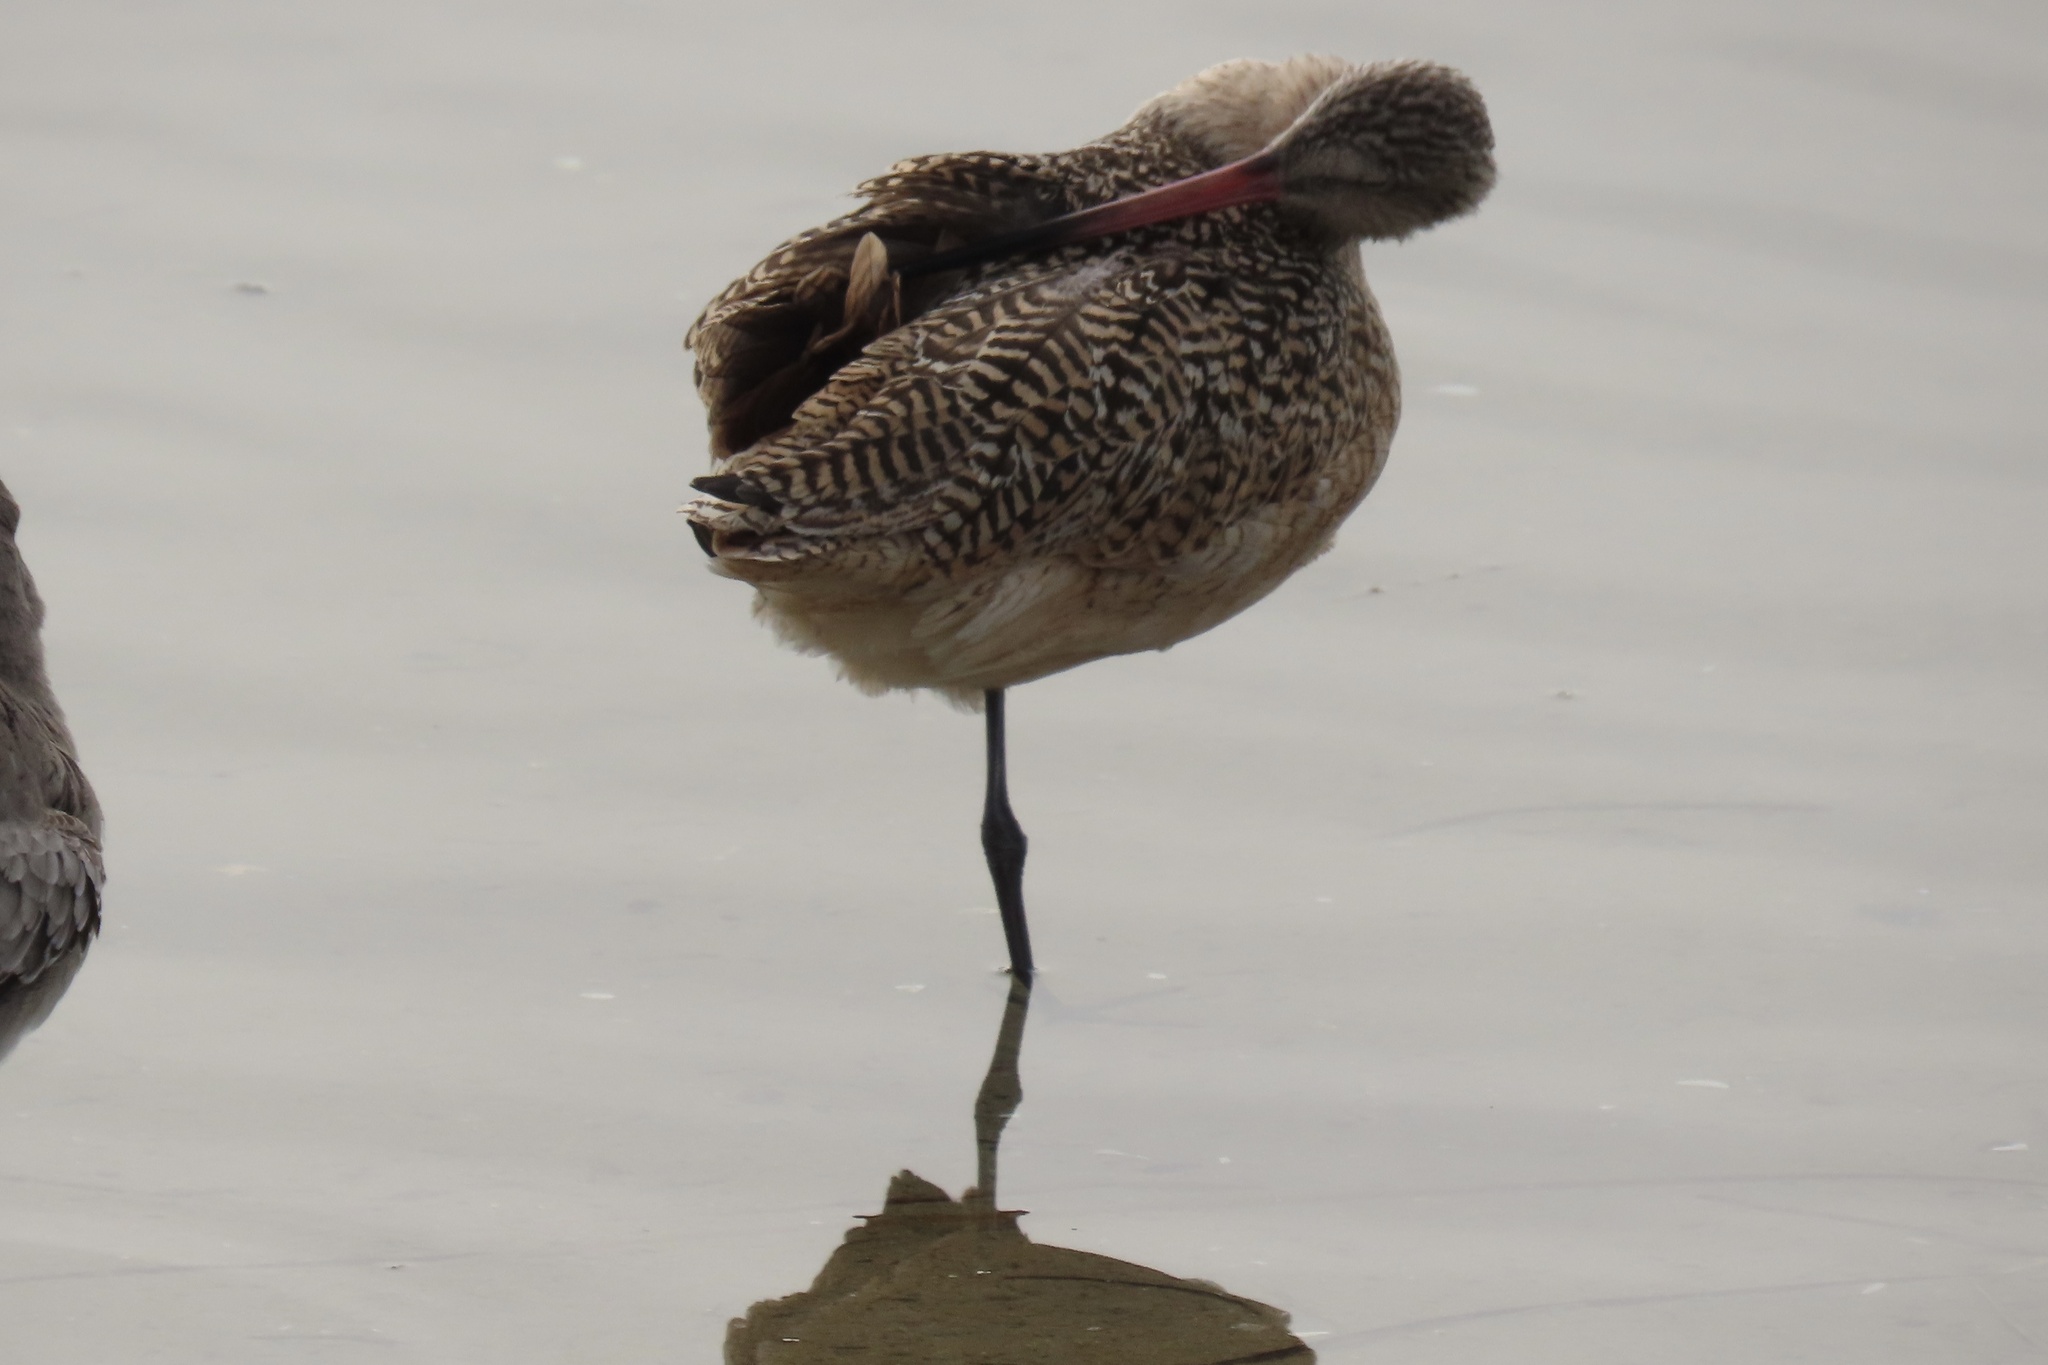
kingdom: Animalia
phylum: Chordata
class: Aves
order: Charadriiformes
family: Scolopacidae
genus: Limosa
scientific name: Limosa fedoa
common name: Marbled godwit
